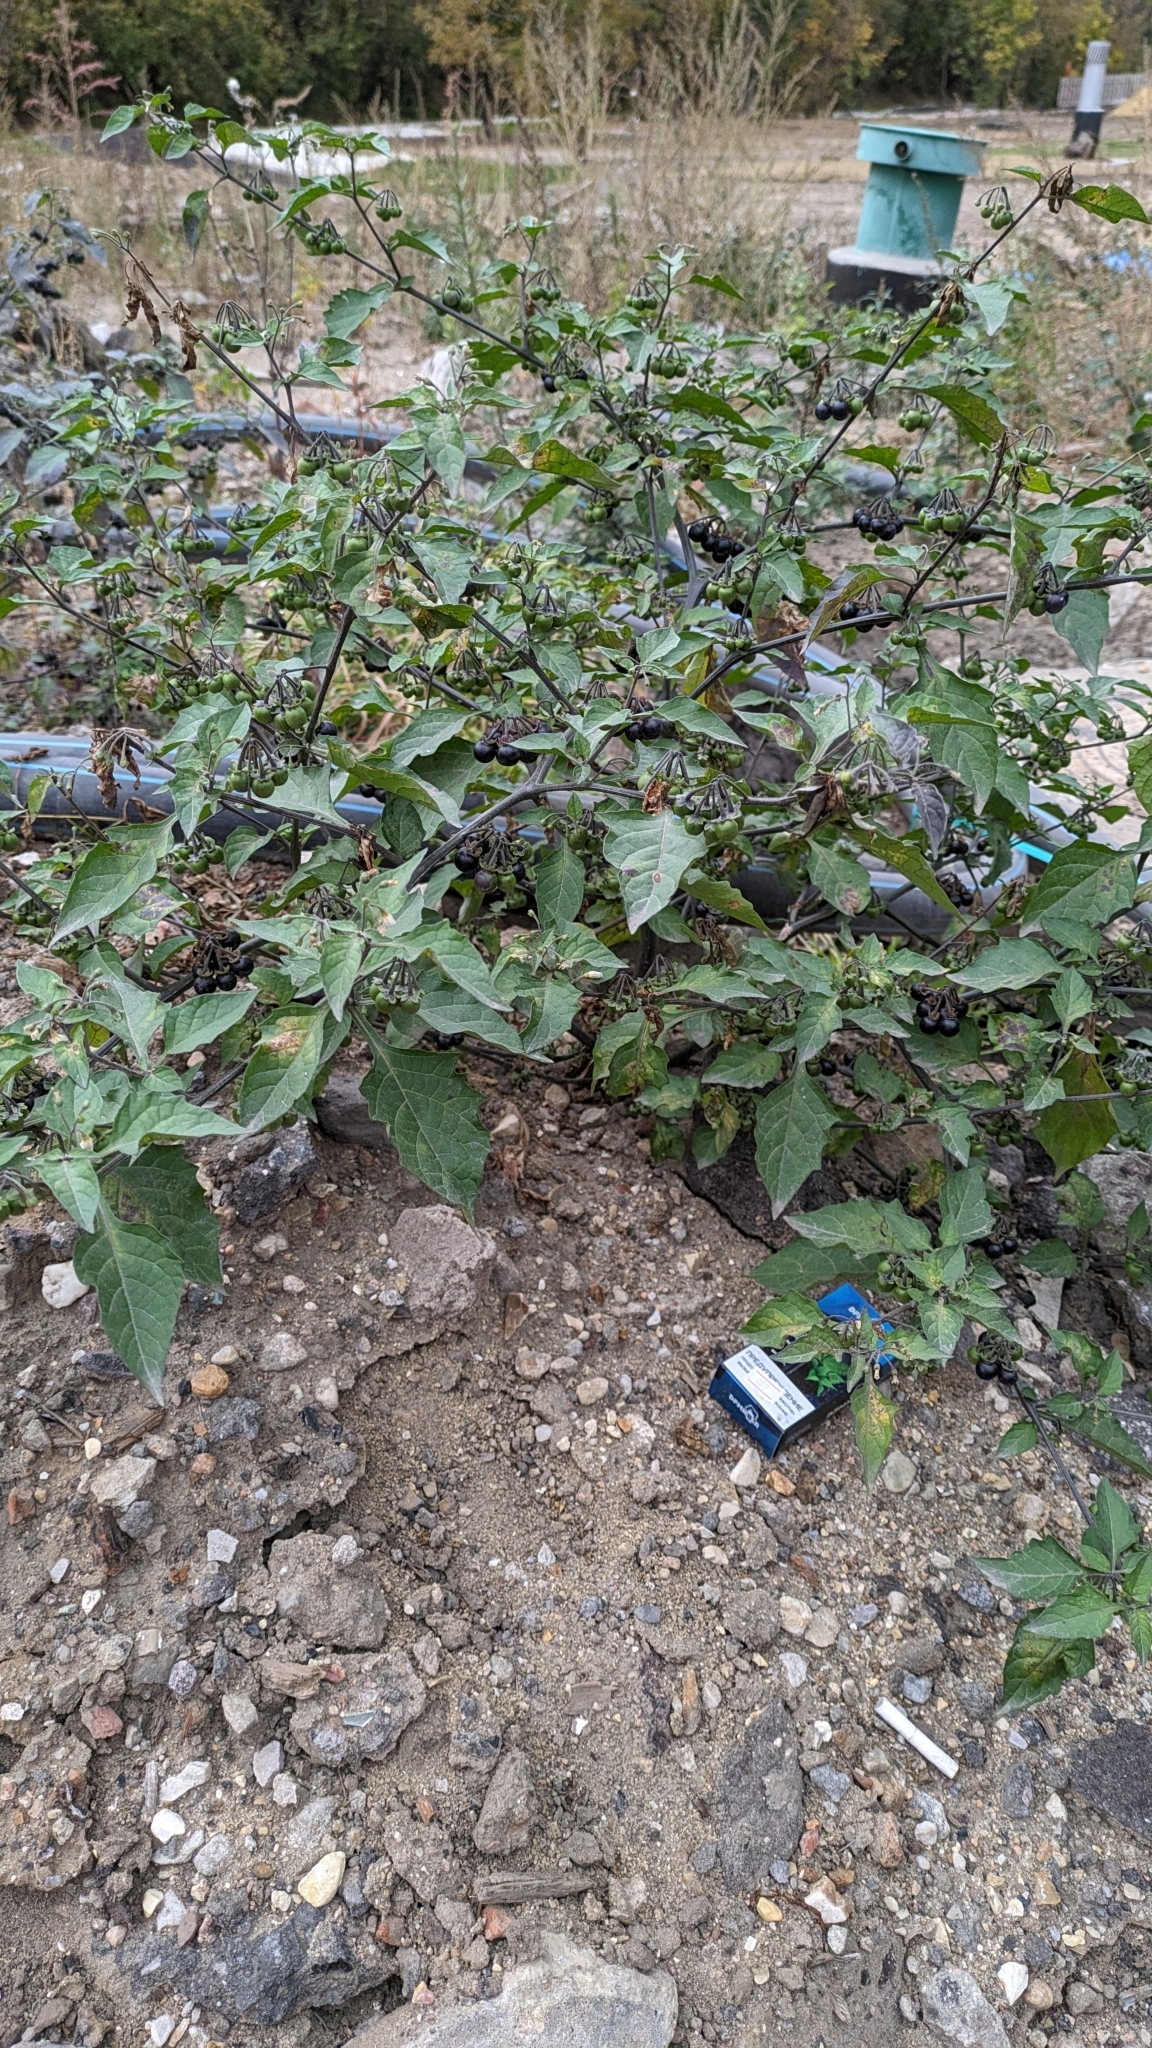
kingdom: Plantae
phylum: Tracheophyta
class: Magnoliopsida
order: Solanales
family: Solanaceae
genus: Solanum
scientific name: Solanum nigrum
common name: Black nightshade
